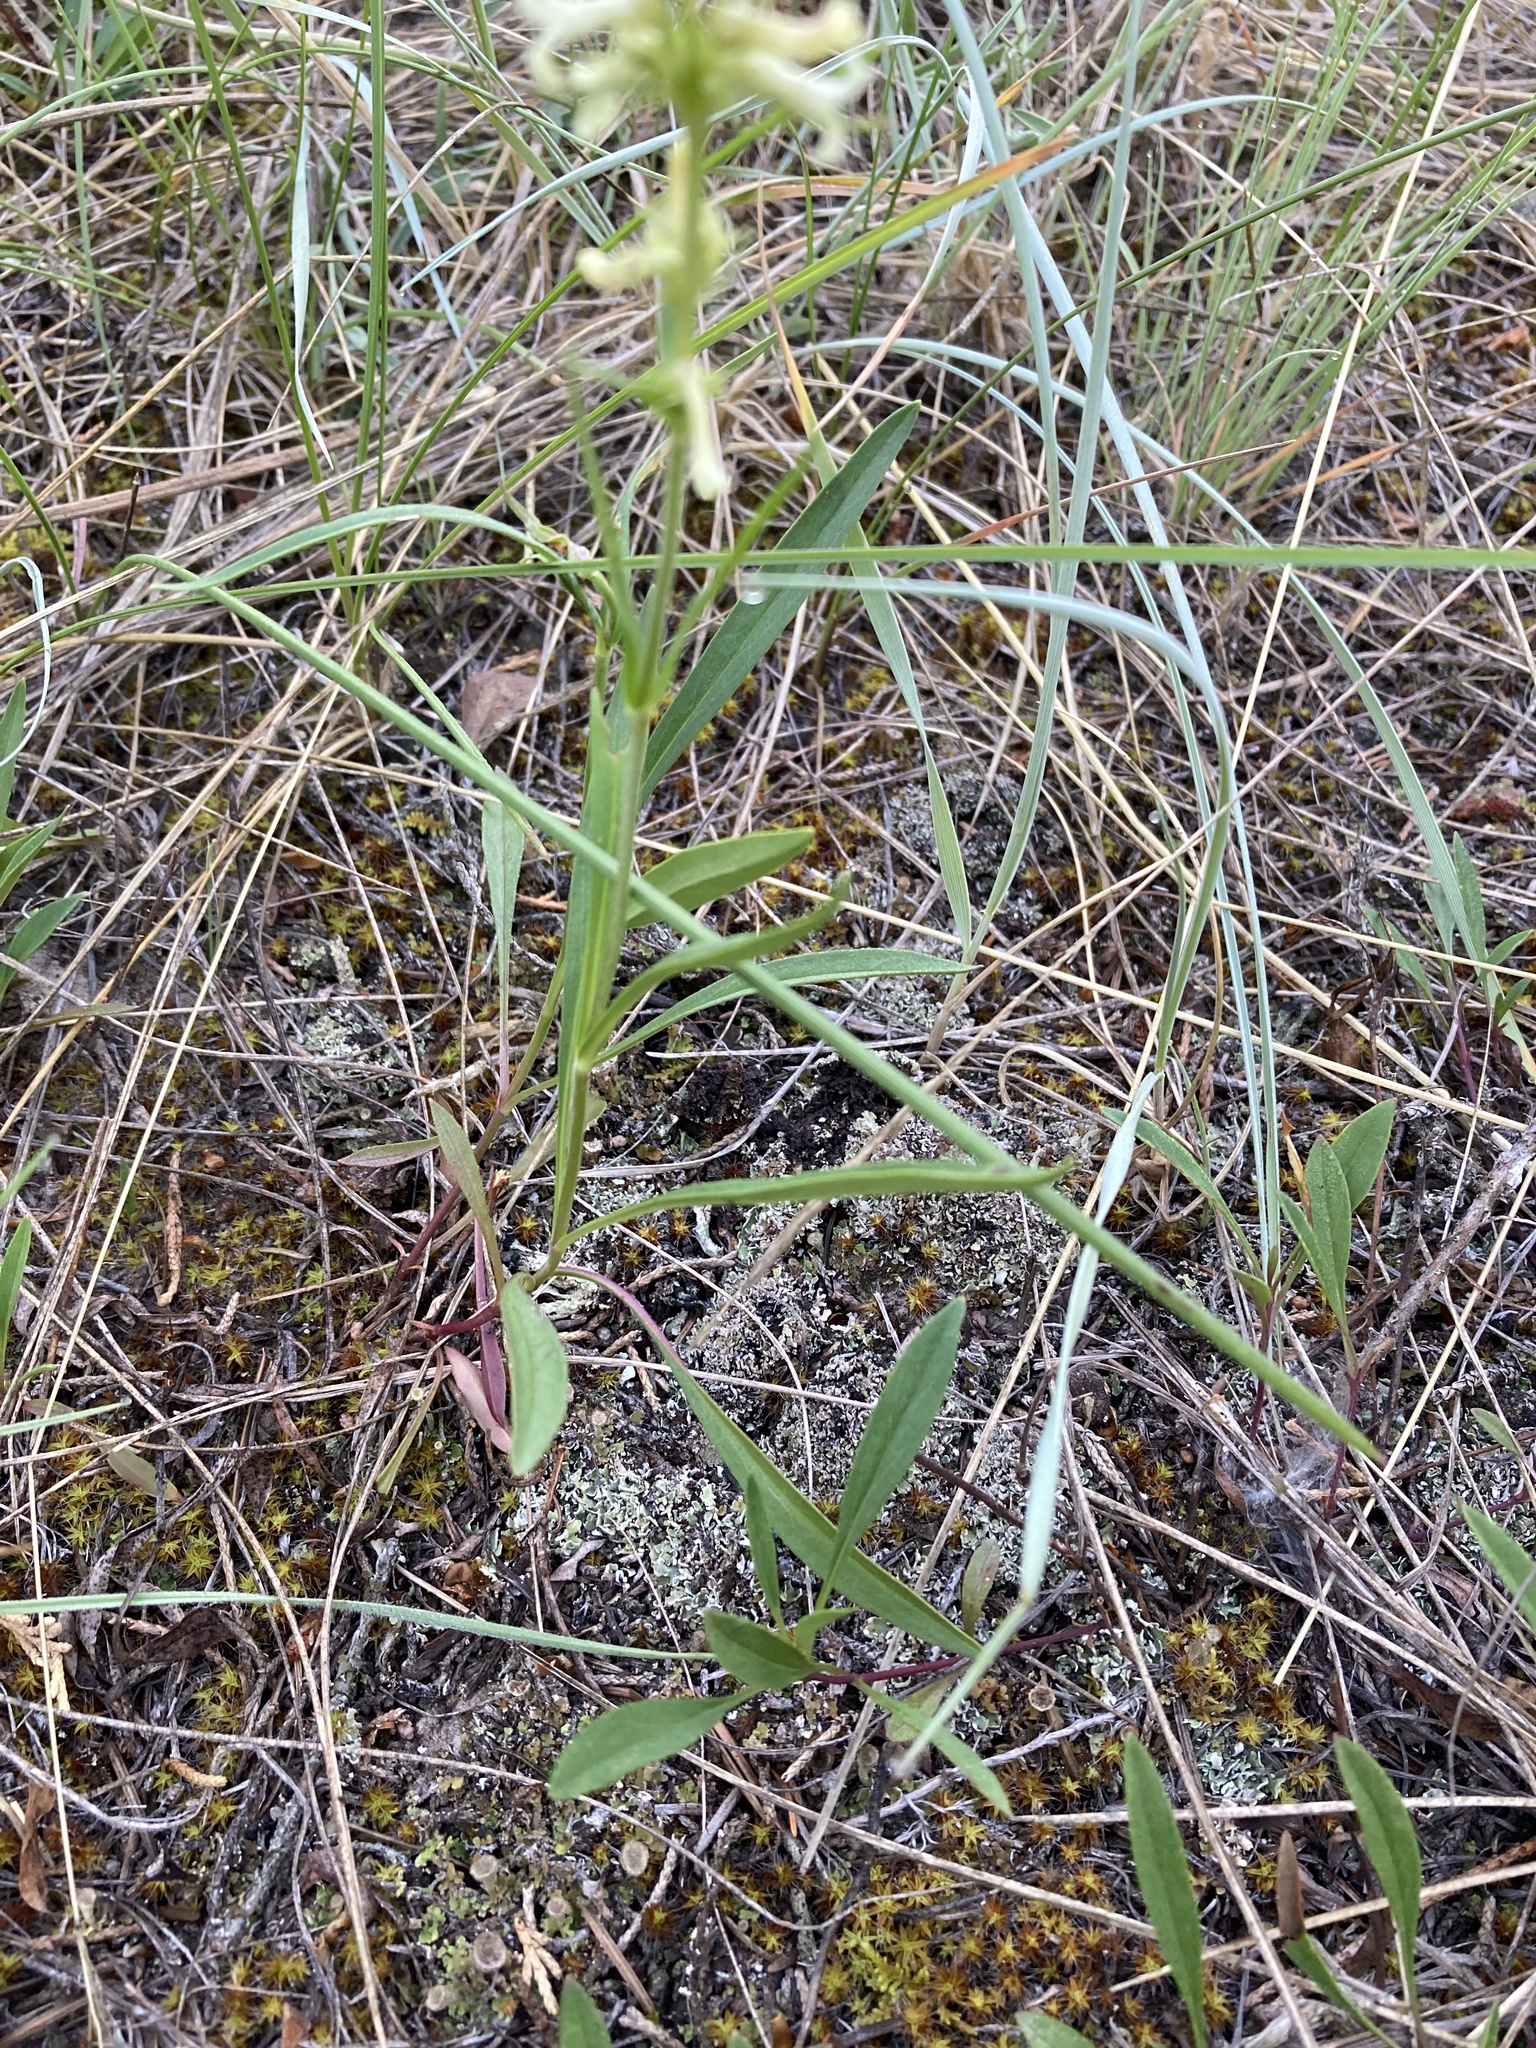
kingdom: Plantae
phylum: Tracheophyta
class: Magnoliopsida
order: Lamiales
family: Plantaginaceae
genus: Penstemon
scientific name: Penstemon confertus
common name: Lesser yellow beardtongue
